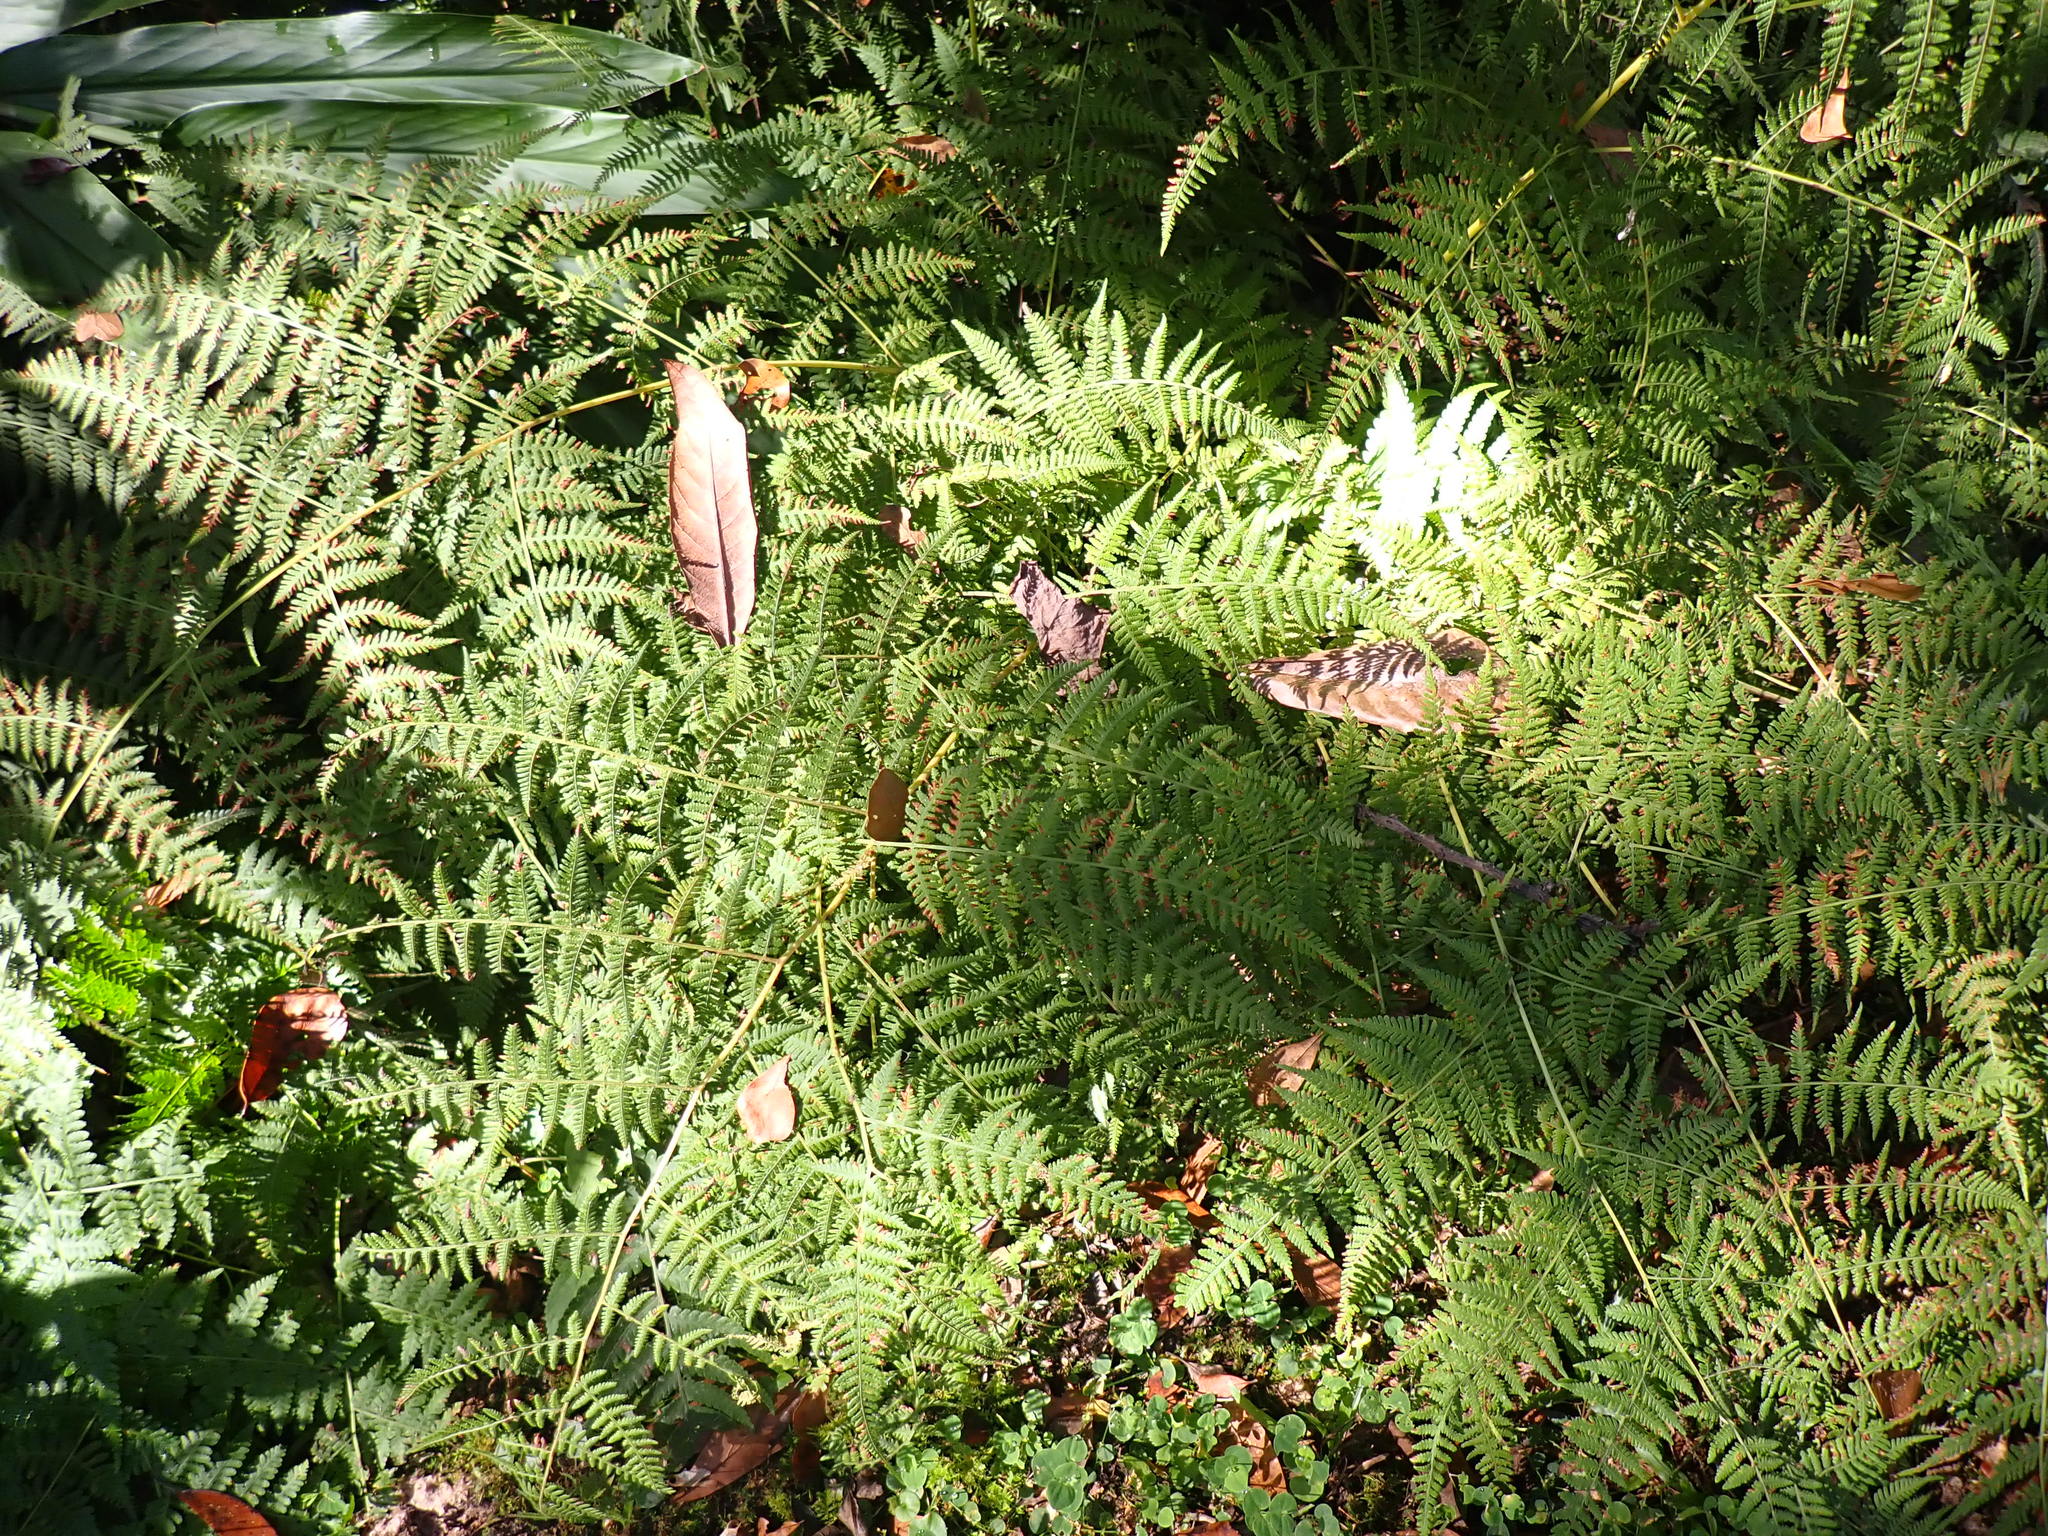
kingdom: Plantae
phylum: Tracheophyta
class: Polypodiopsida
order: Polypodiales
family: Dennstaedtiaceae
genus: Pteridium
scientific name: Pteridium aquilinum
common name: Bracken
